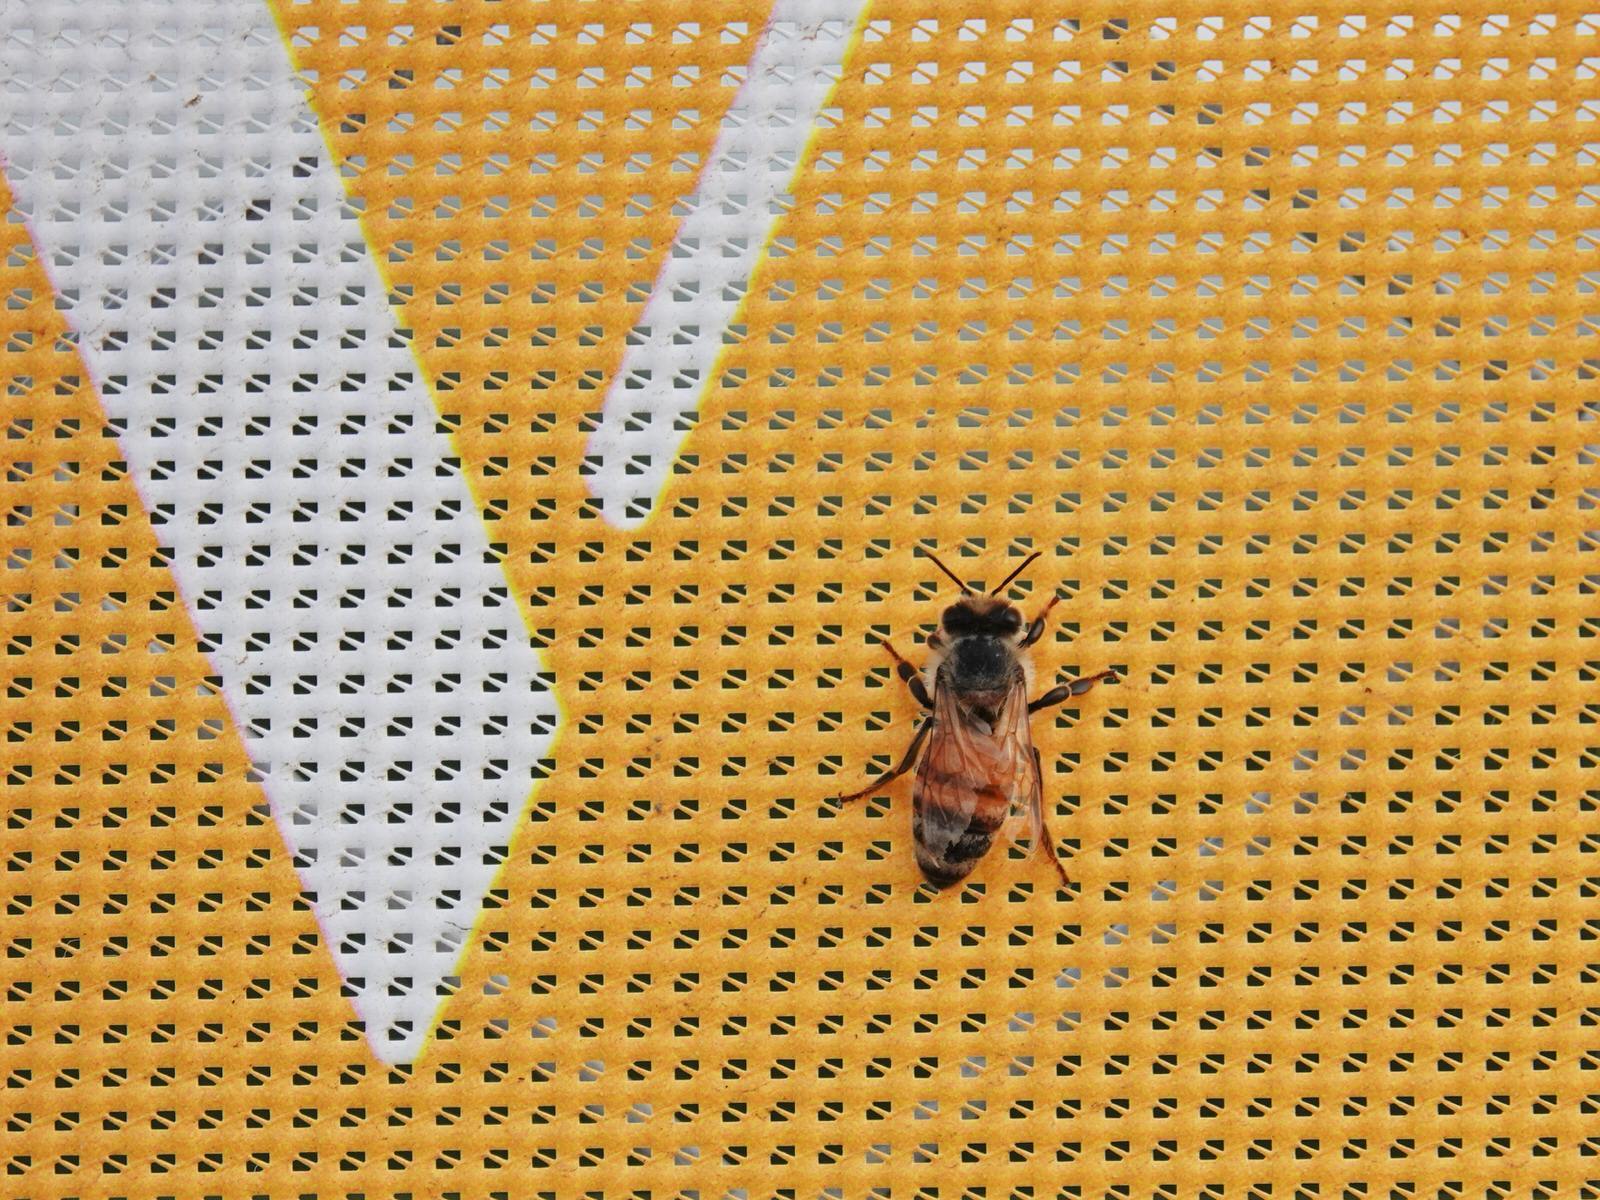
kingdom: Animalia
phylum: Arthropoda
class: Insecta
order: Hymenoptera
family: Apidae
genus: Apis
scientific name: Apis mellifera
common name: Honey bee
